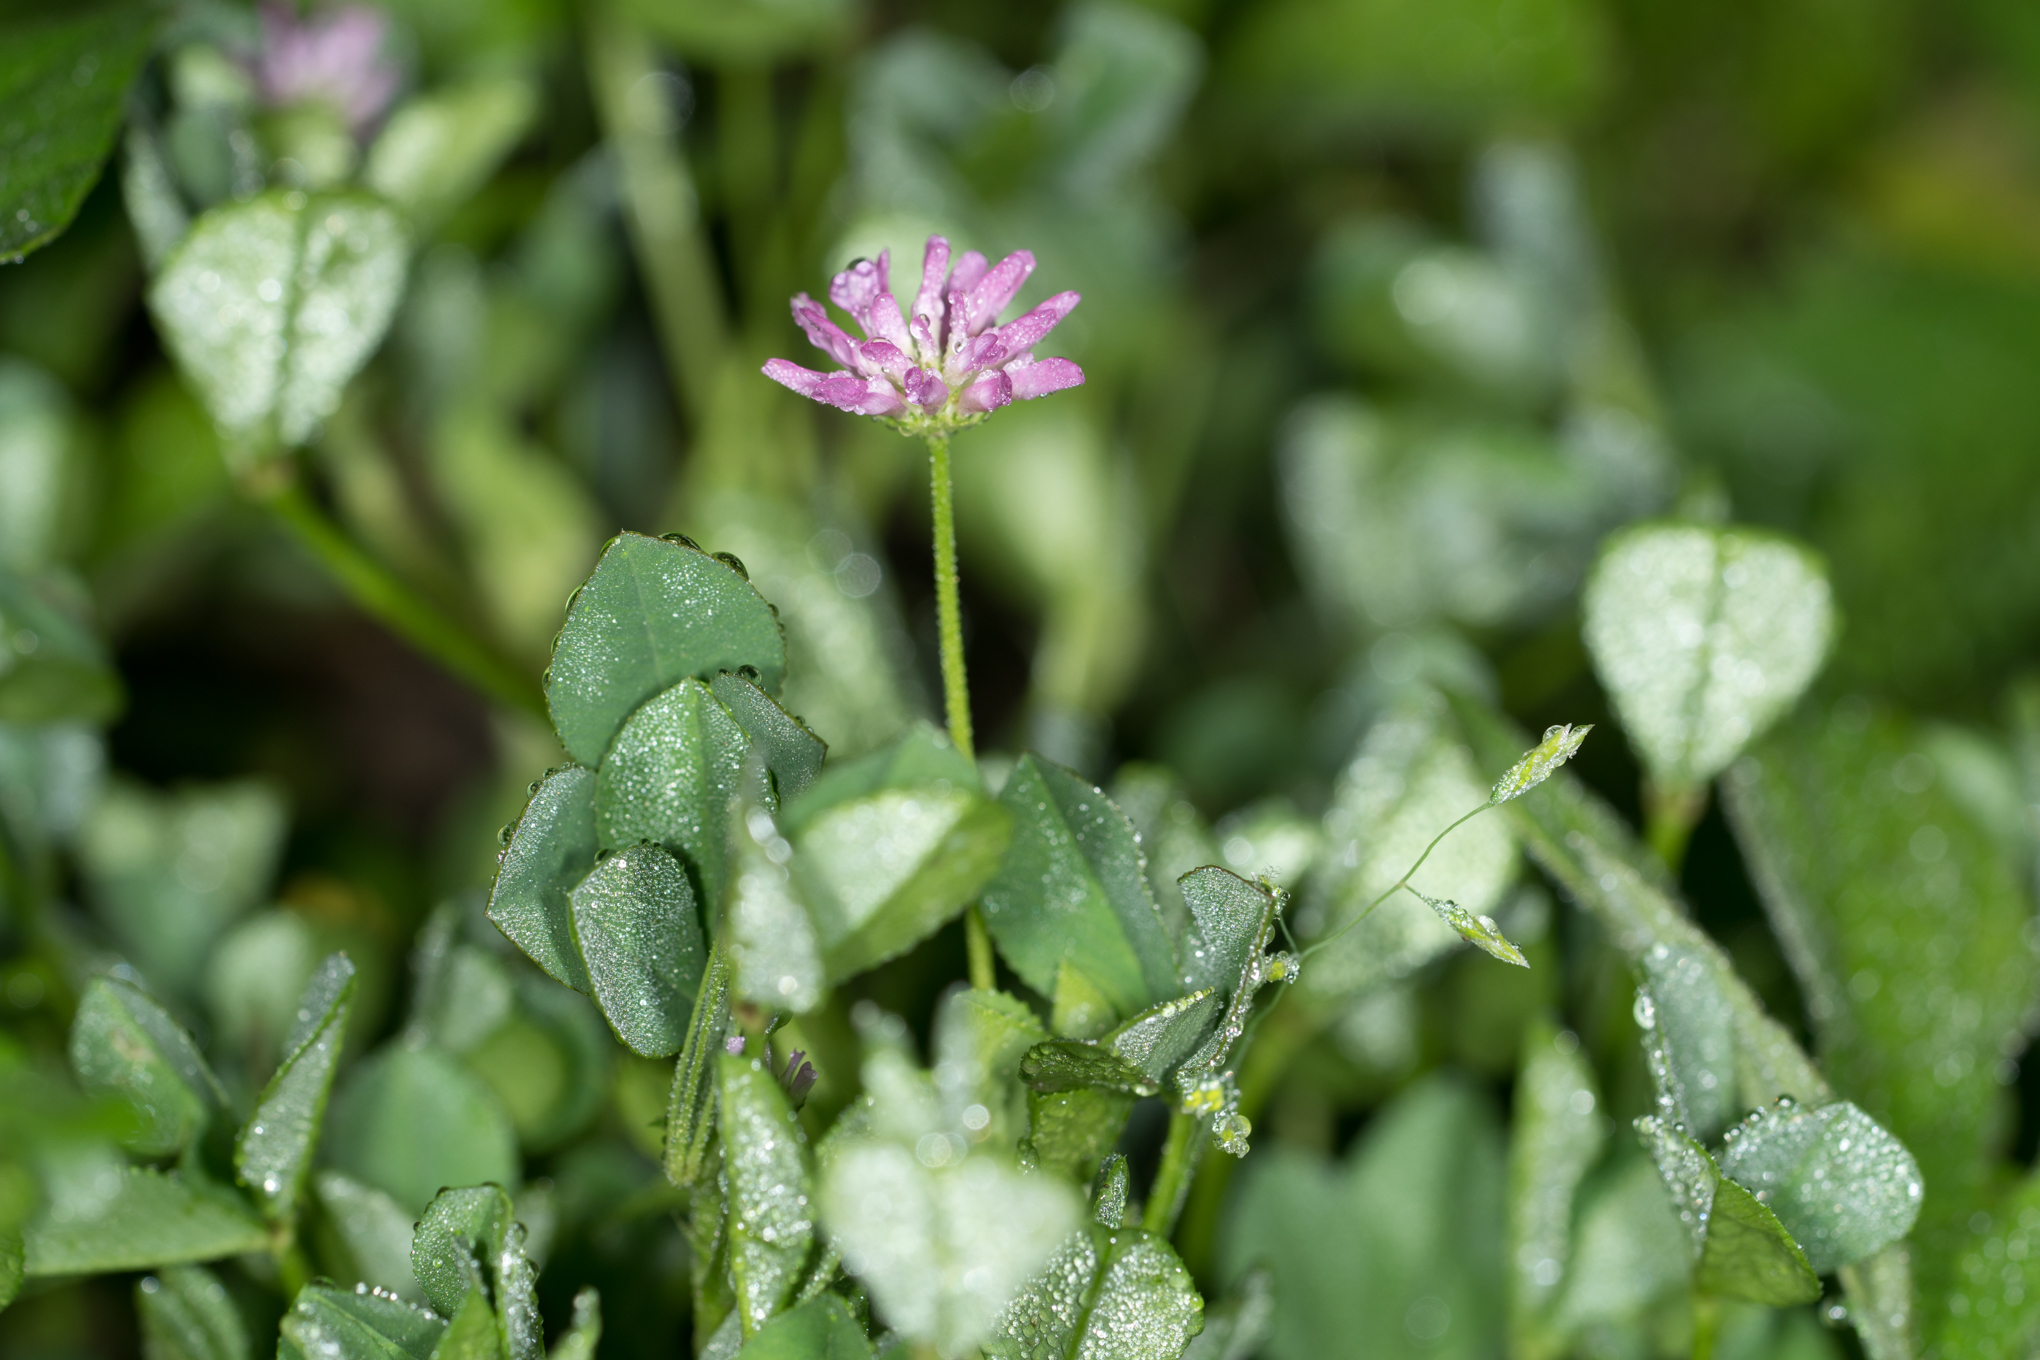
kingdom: Plantae
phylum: Tracheophyta
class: Magnoliopsida
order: Fabales
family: Fabaceae
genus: Trifolium
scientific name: Trifolium resupinatum
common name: Reversed clover
